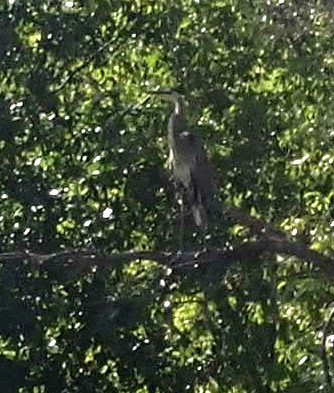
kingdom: Animalia
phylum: Chordata
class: Aves
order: Pelecaniformes
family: Ardeidae
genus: Ardea
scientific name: Ardea herodias
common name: Great blue heron
